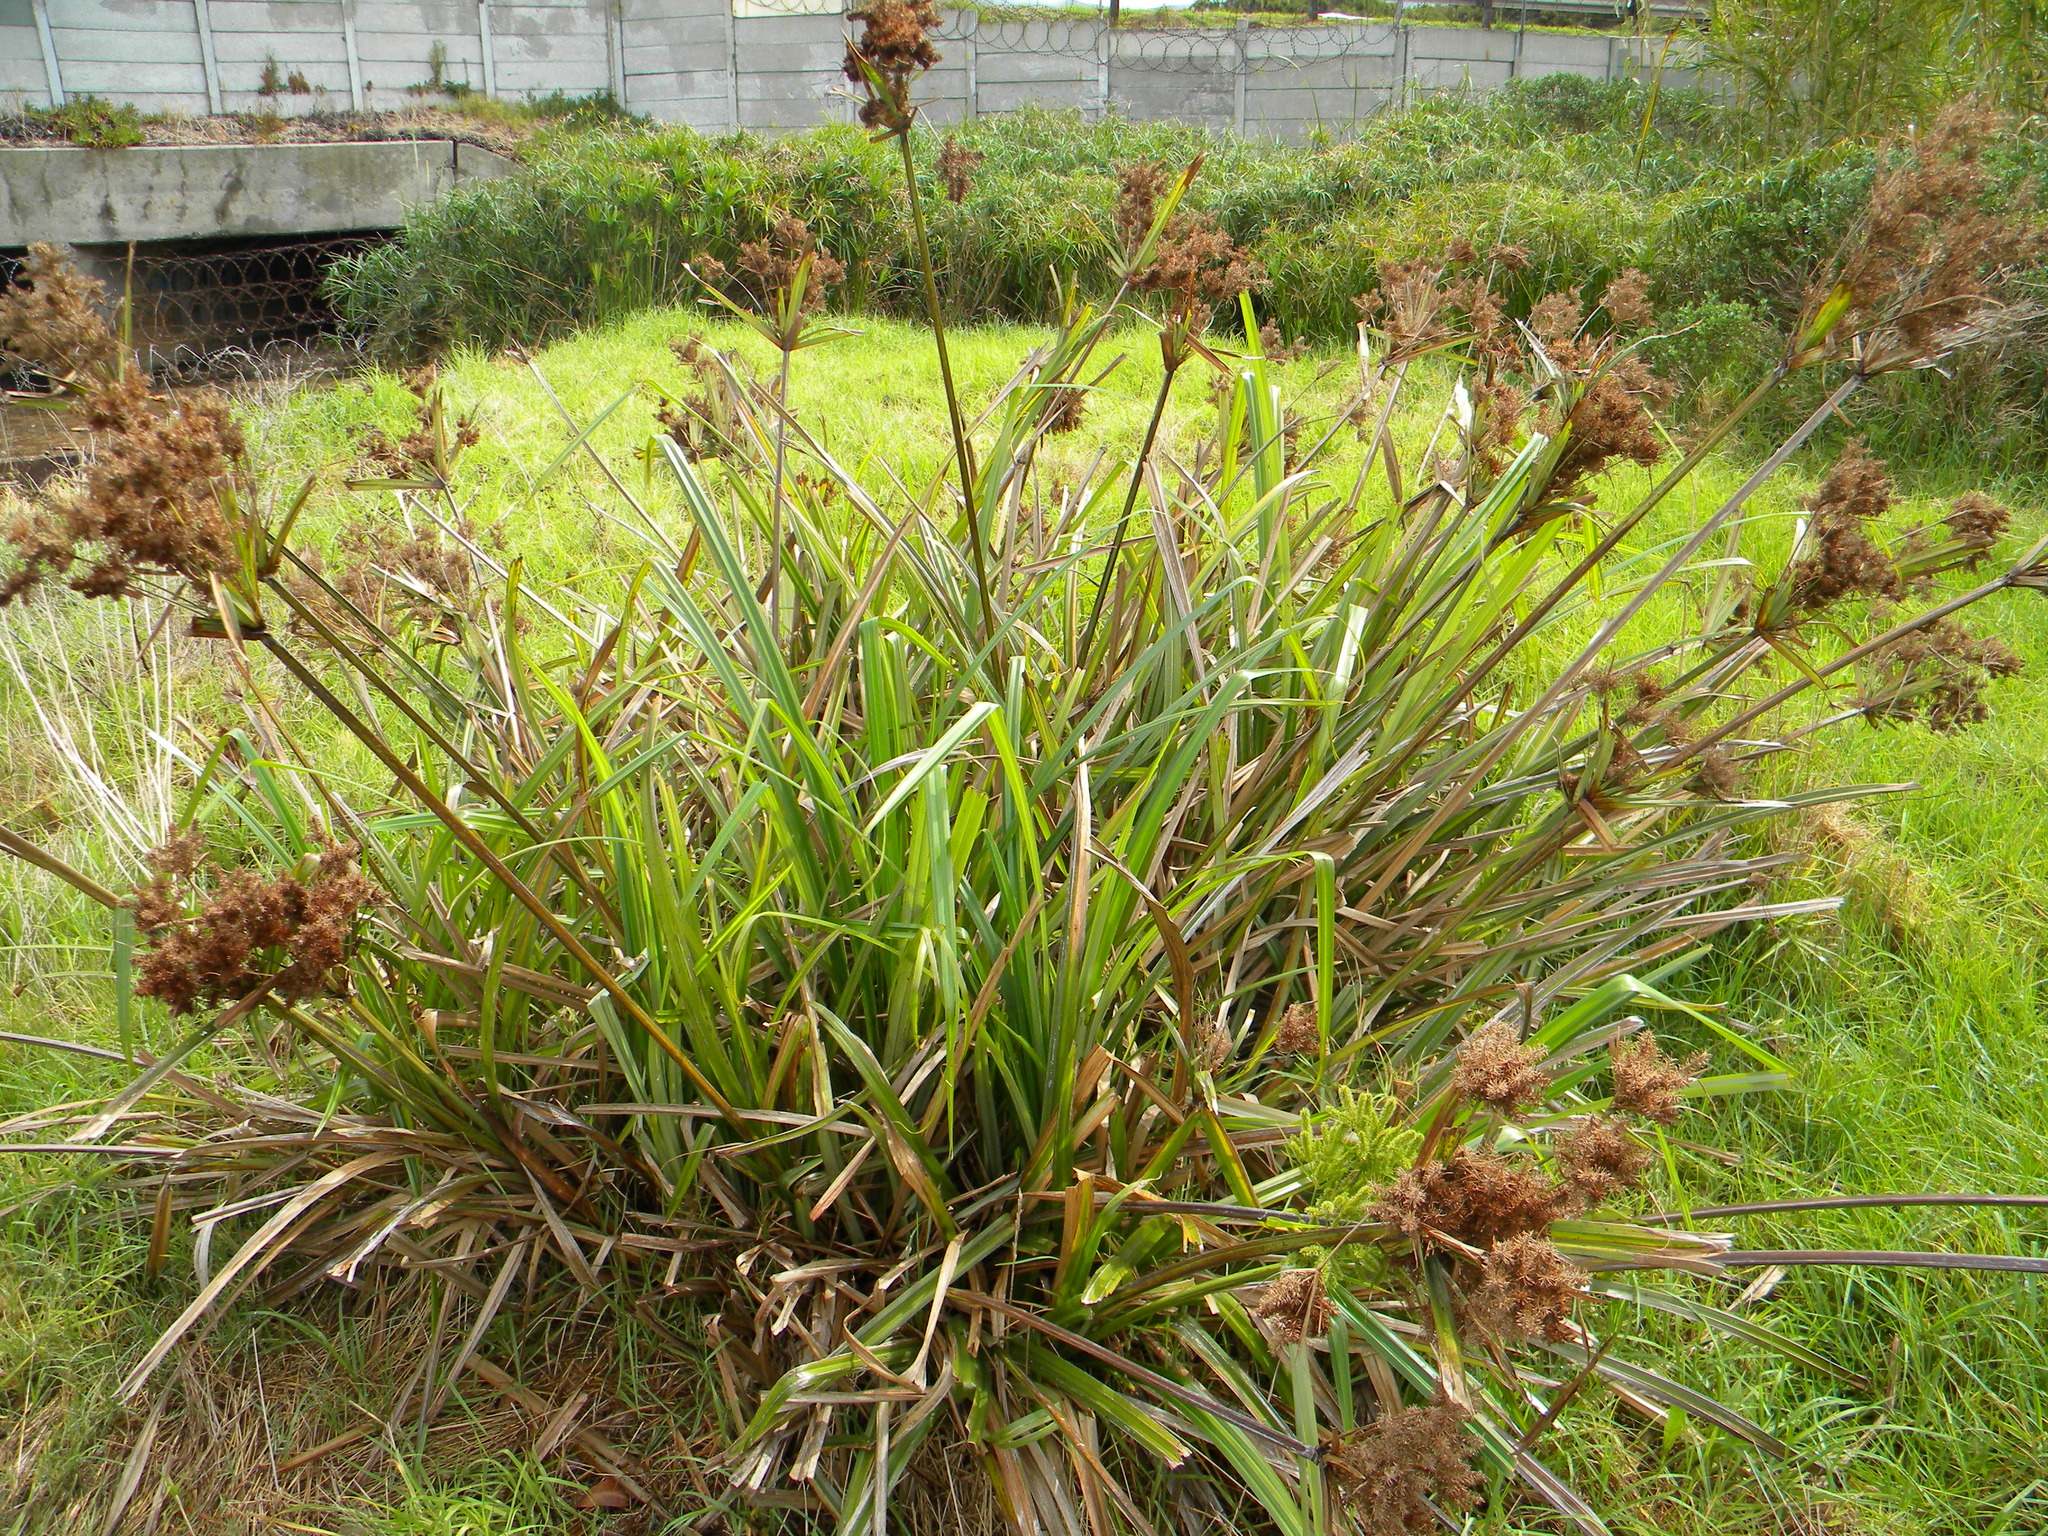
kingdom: Plantae
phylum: Tracheophyta
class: Liliopsida
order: Poales
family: Cyperaceae
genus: Cyperus
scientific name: Cyperus dives
